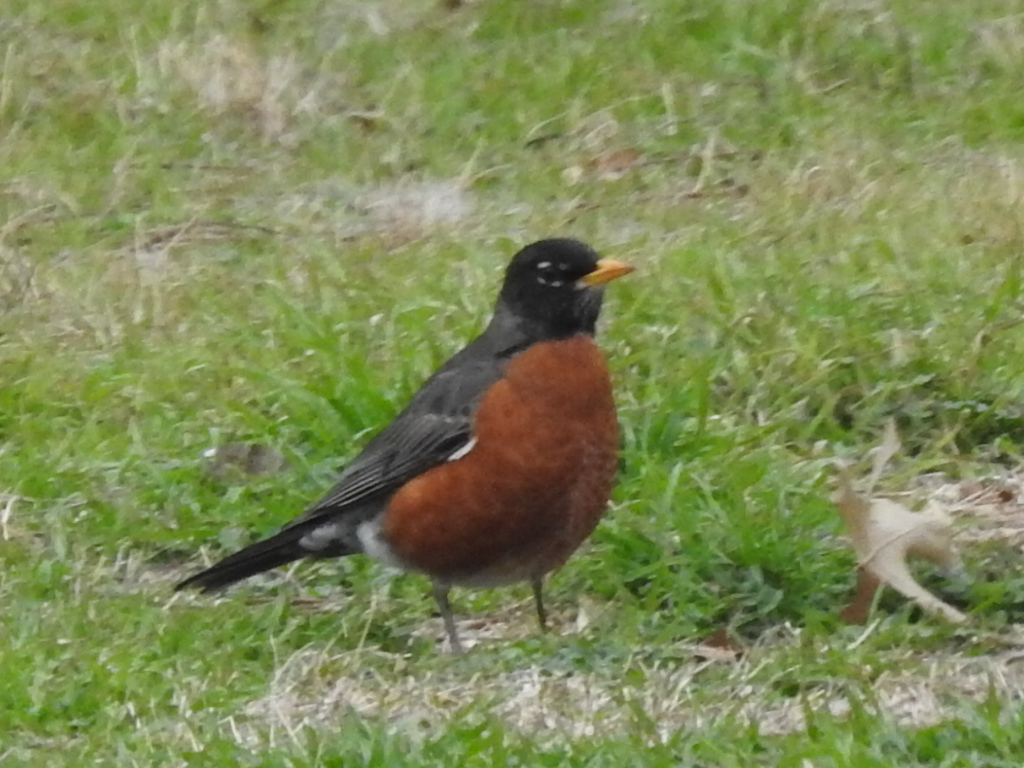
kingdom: Animalia
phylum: Chordata
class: Aves
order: Passeriformes
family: Turdidae
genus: Turdus
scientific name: Turdus migratorius
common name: American robin
